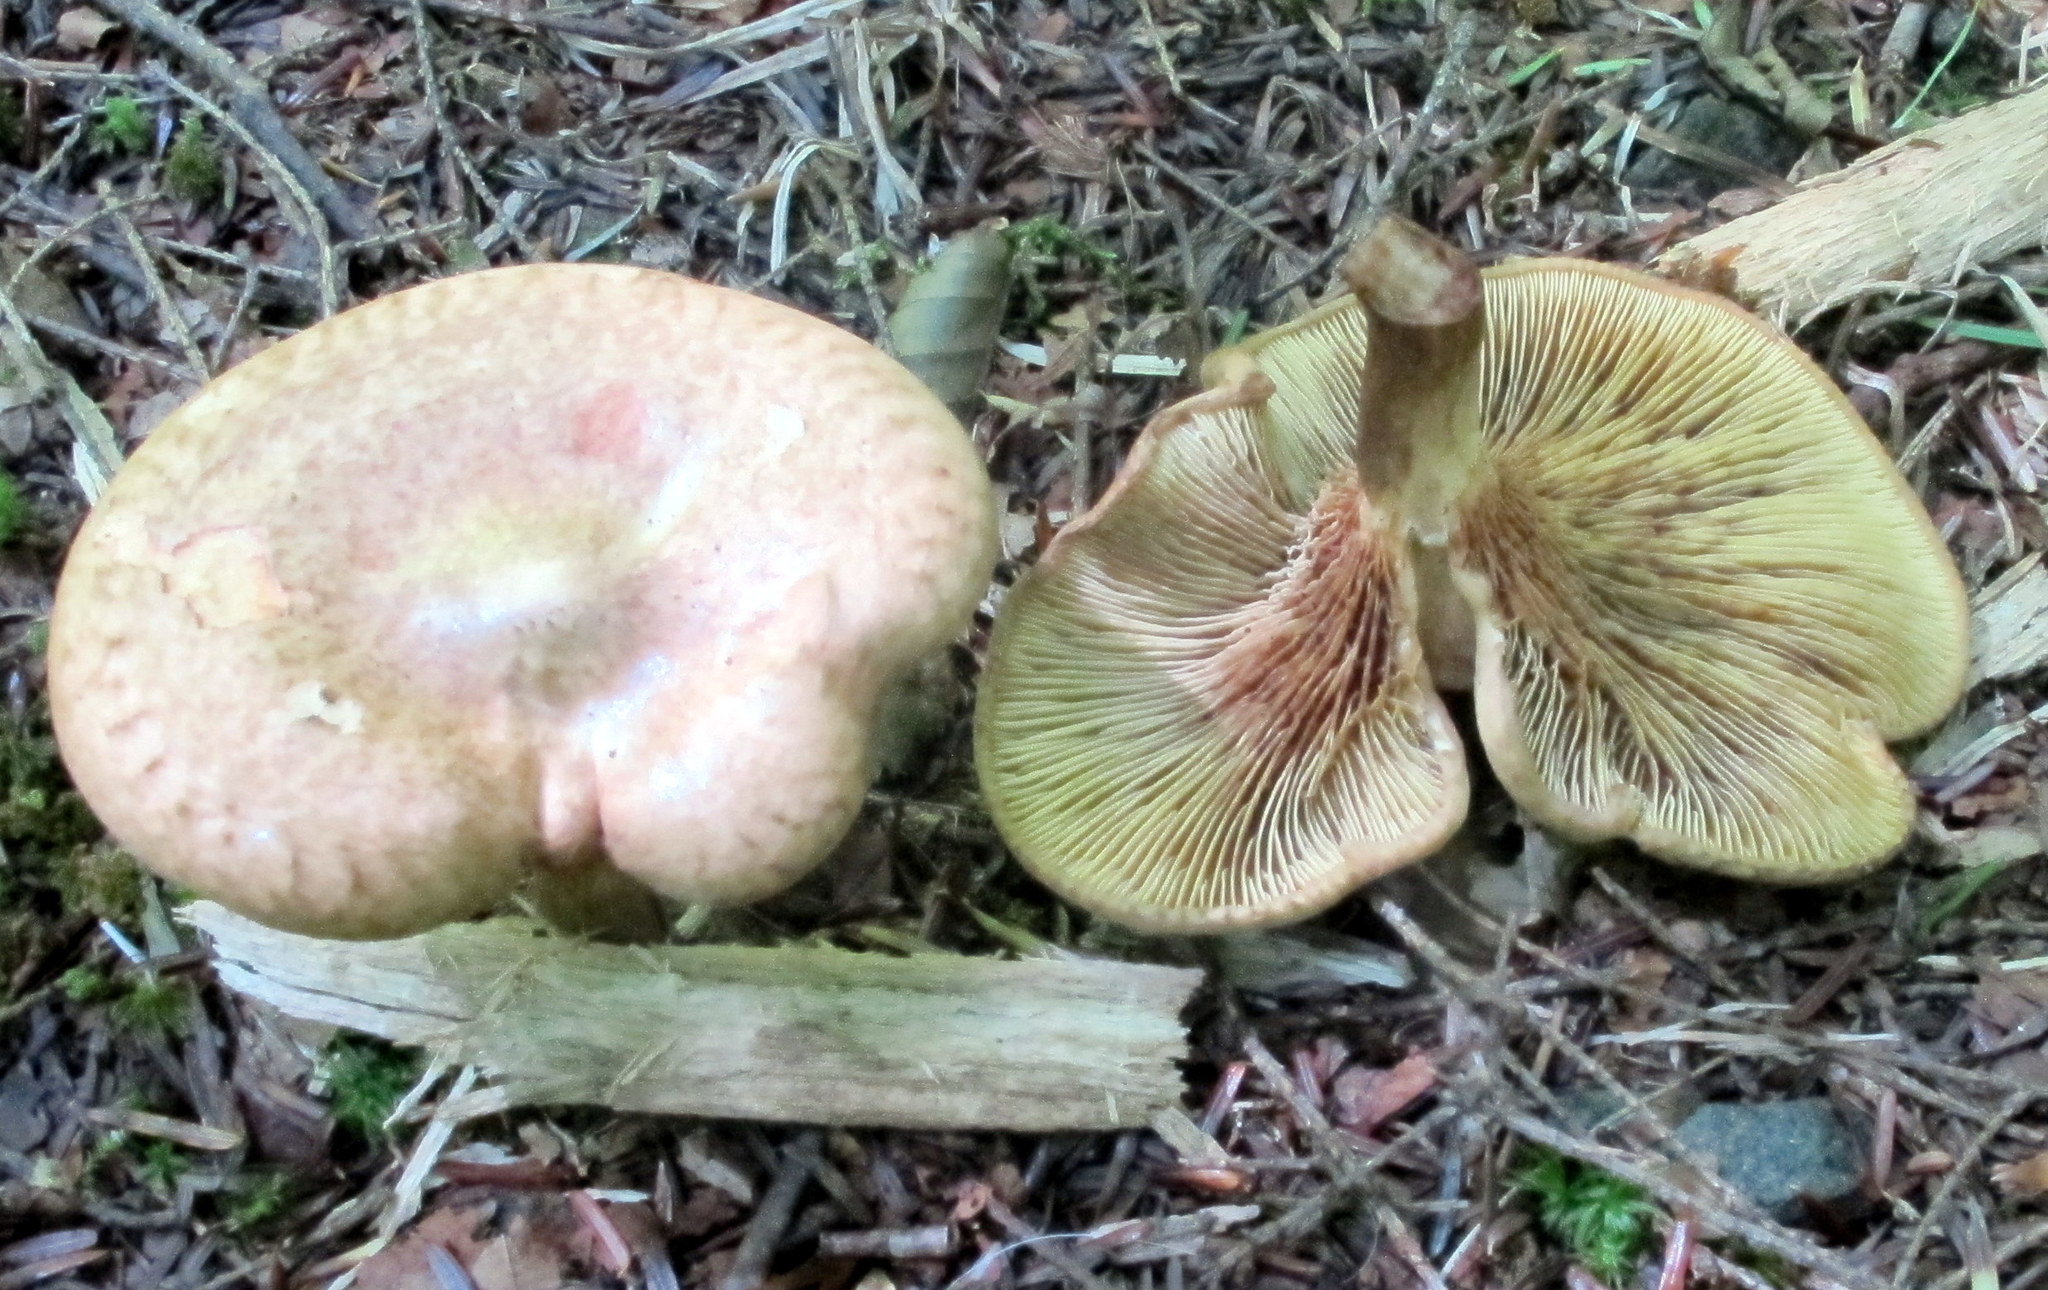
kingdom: Fungi
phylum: Basidiomycota
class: Agaricomycetes
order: Boletales
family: Paxillaceae
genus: Paxillus
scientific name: Paxillus involutus
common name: Brown roll rim
